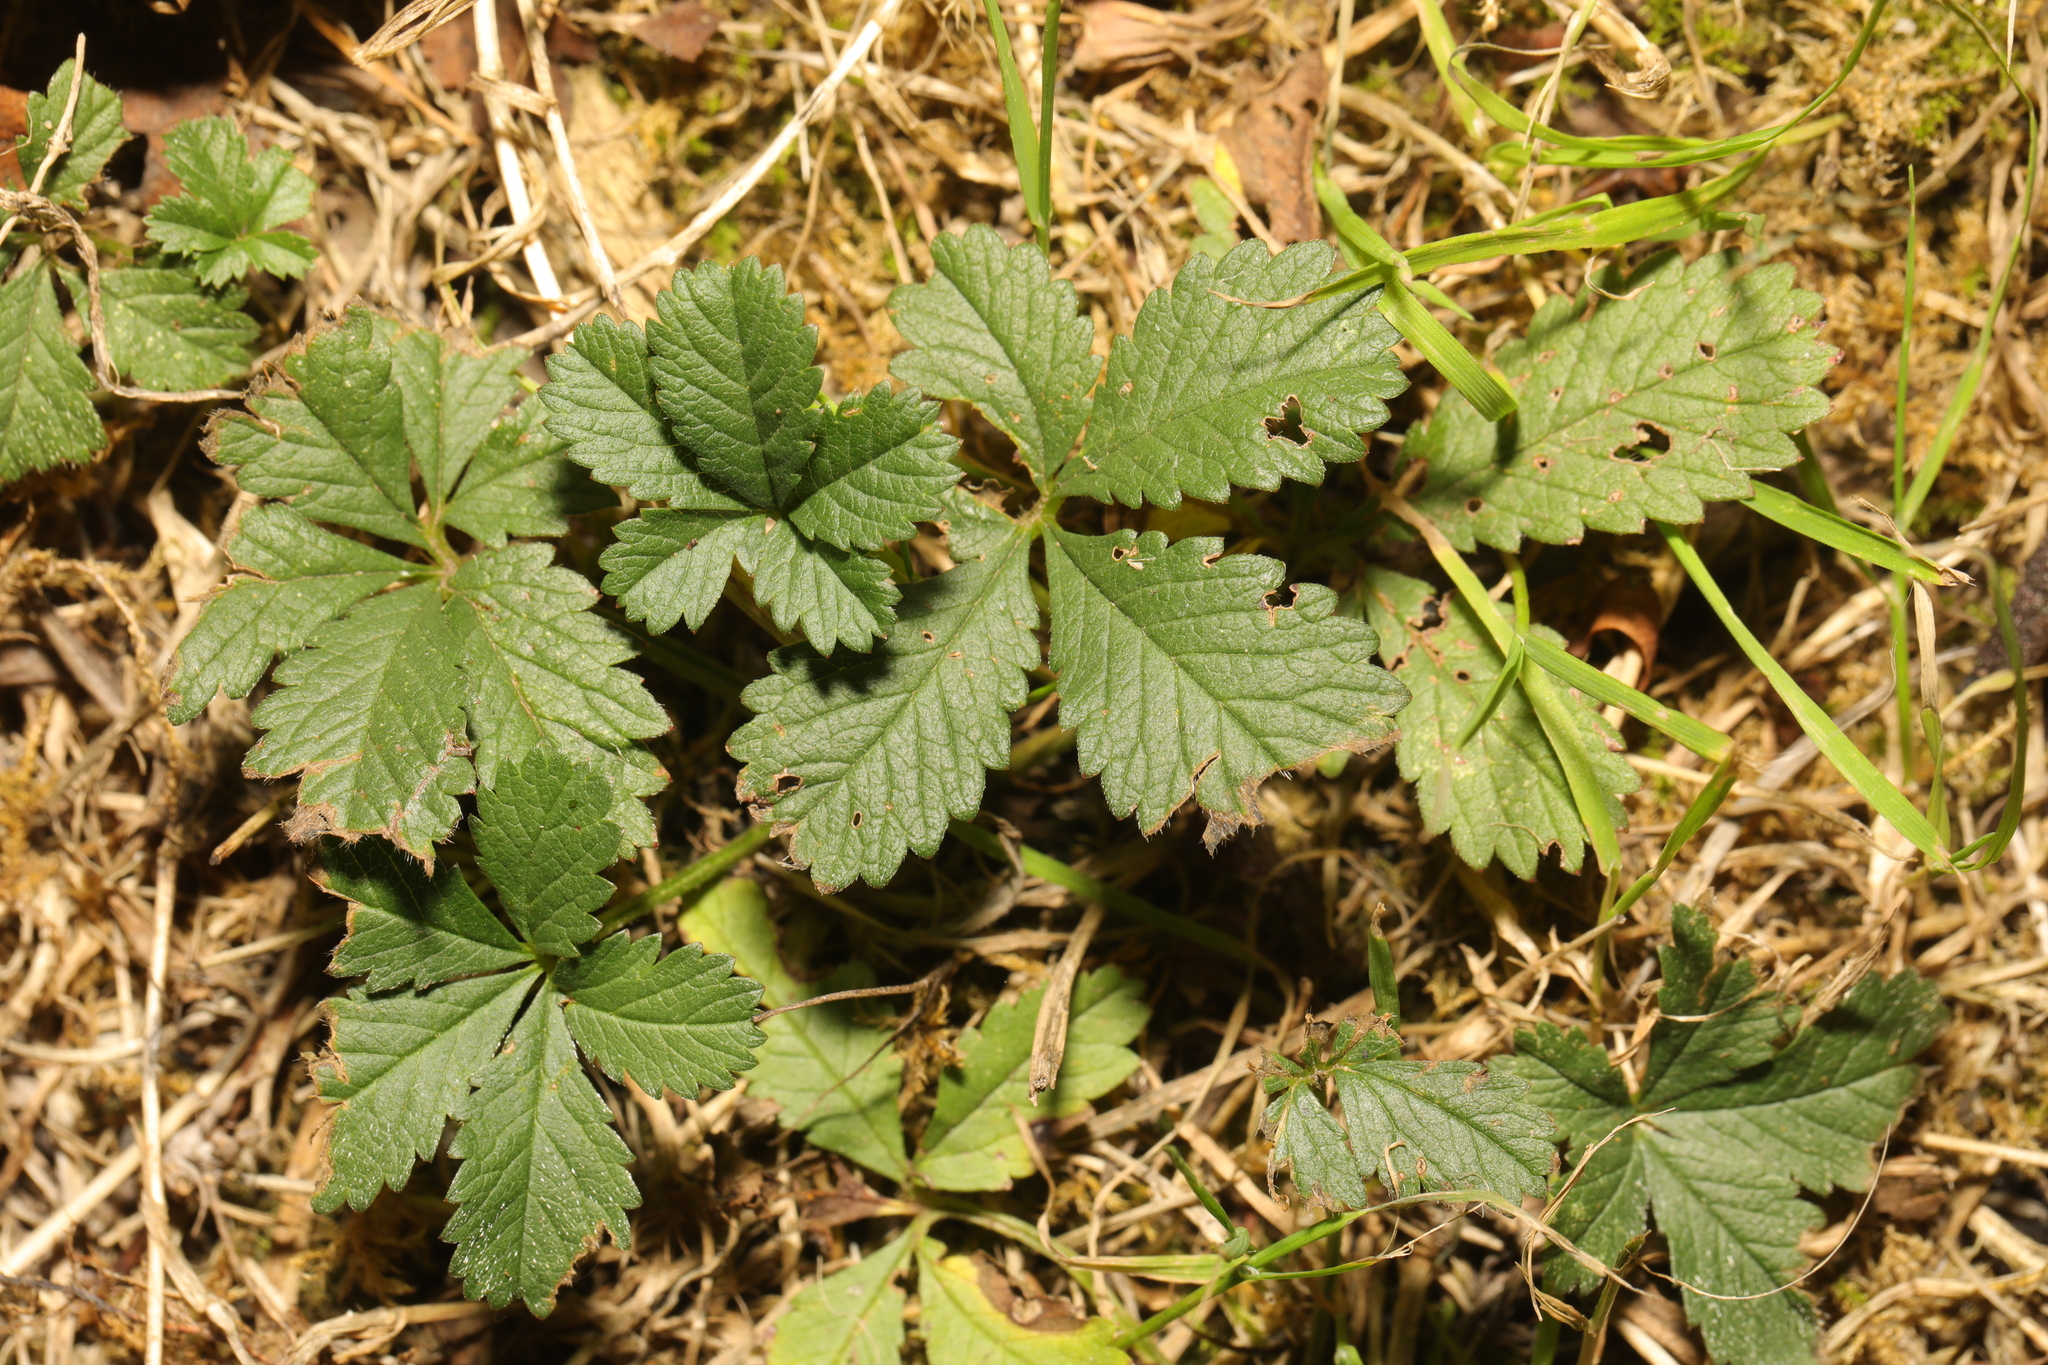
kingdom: Plantae
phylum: Tracheophyta
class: Magnoliopsida
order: Rosales
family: Rosaceae
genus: Potentilla
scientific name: Potentilla reptans
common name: Creeping cinquefoil
